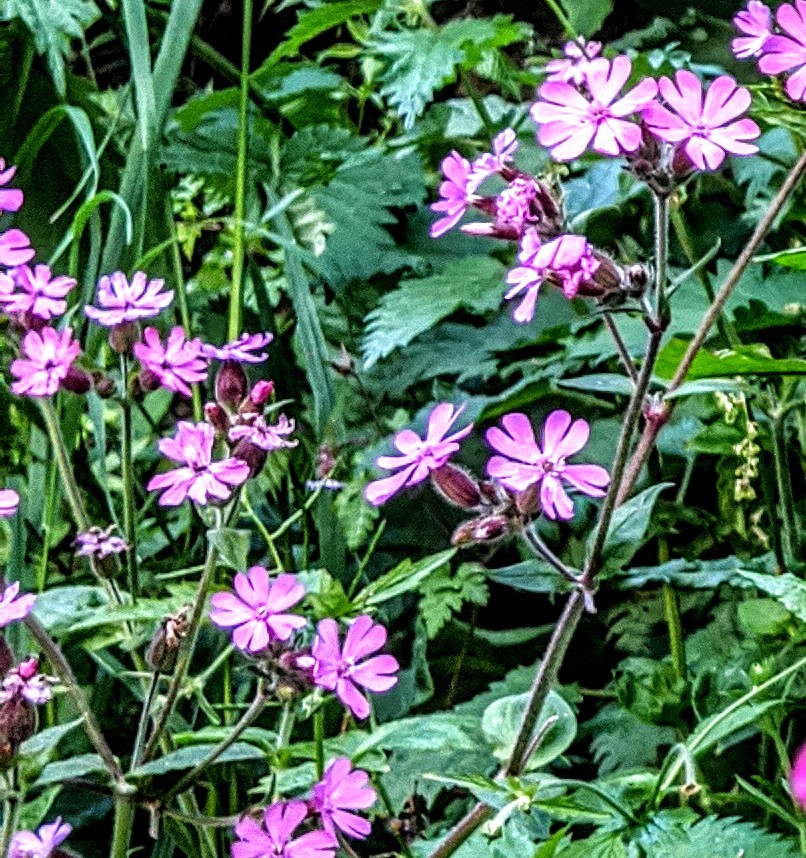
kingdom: Plantae
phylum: Tracheophyta
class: Magnoliopsida
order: Caryophyllales
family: Caryophyllaceae
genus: Silene
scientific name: Silene dioica
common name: Red campion
